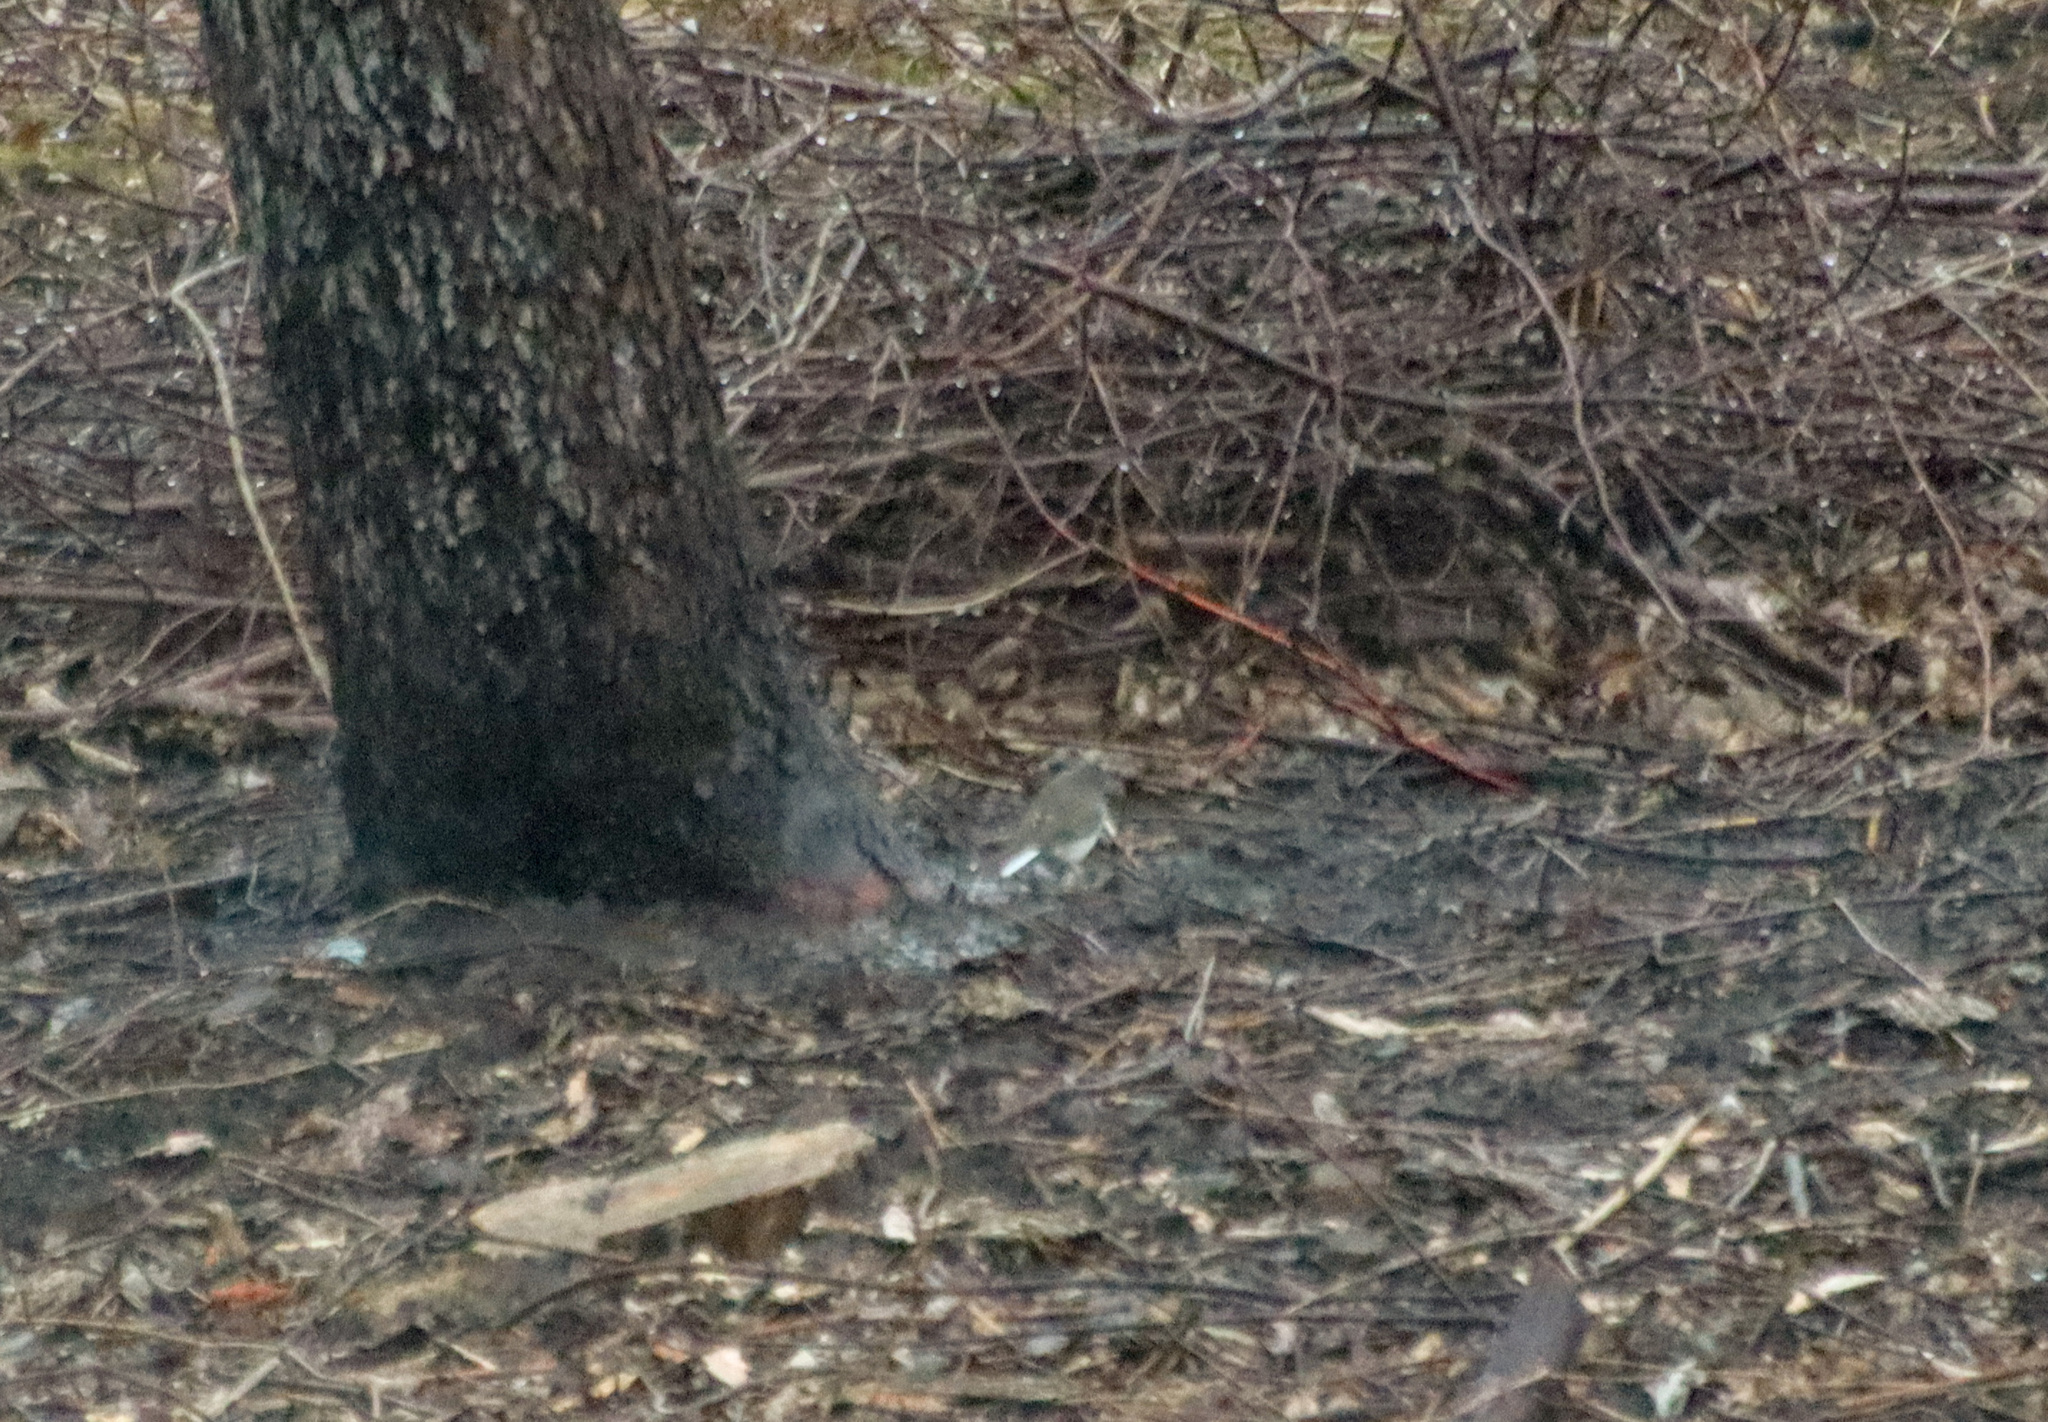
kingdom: Animalia
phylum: Chordata
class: Aves
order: Passeriformes
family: Passerellidae
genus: Junco
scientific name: Junco hyemalis
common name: Dark-eyed junco
